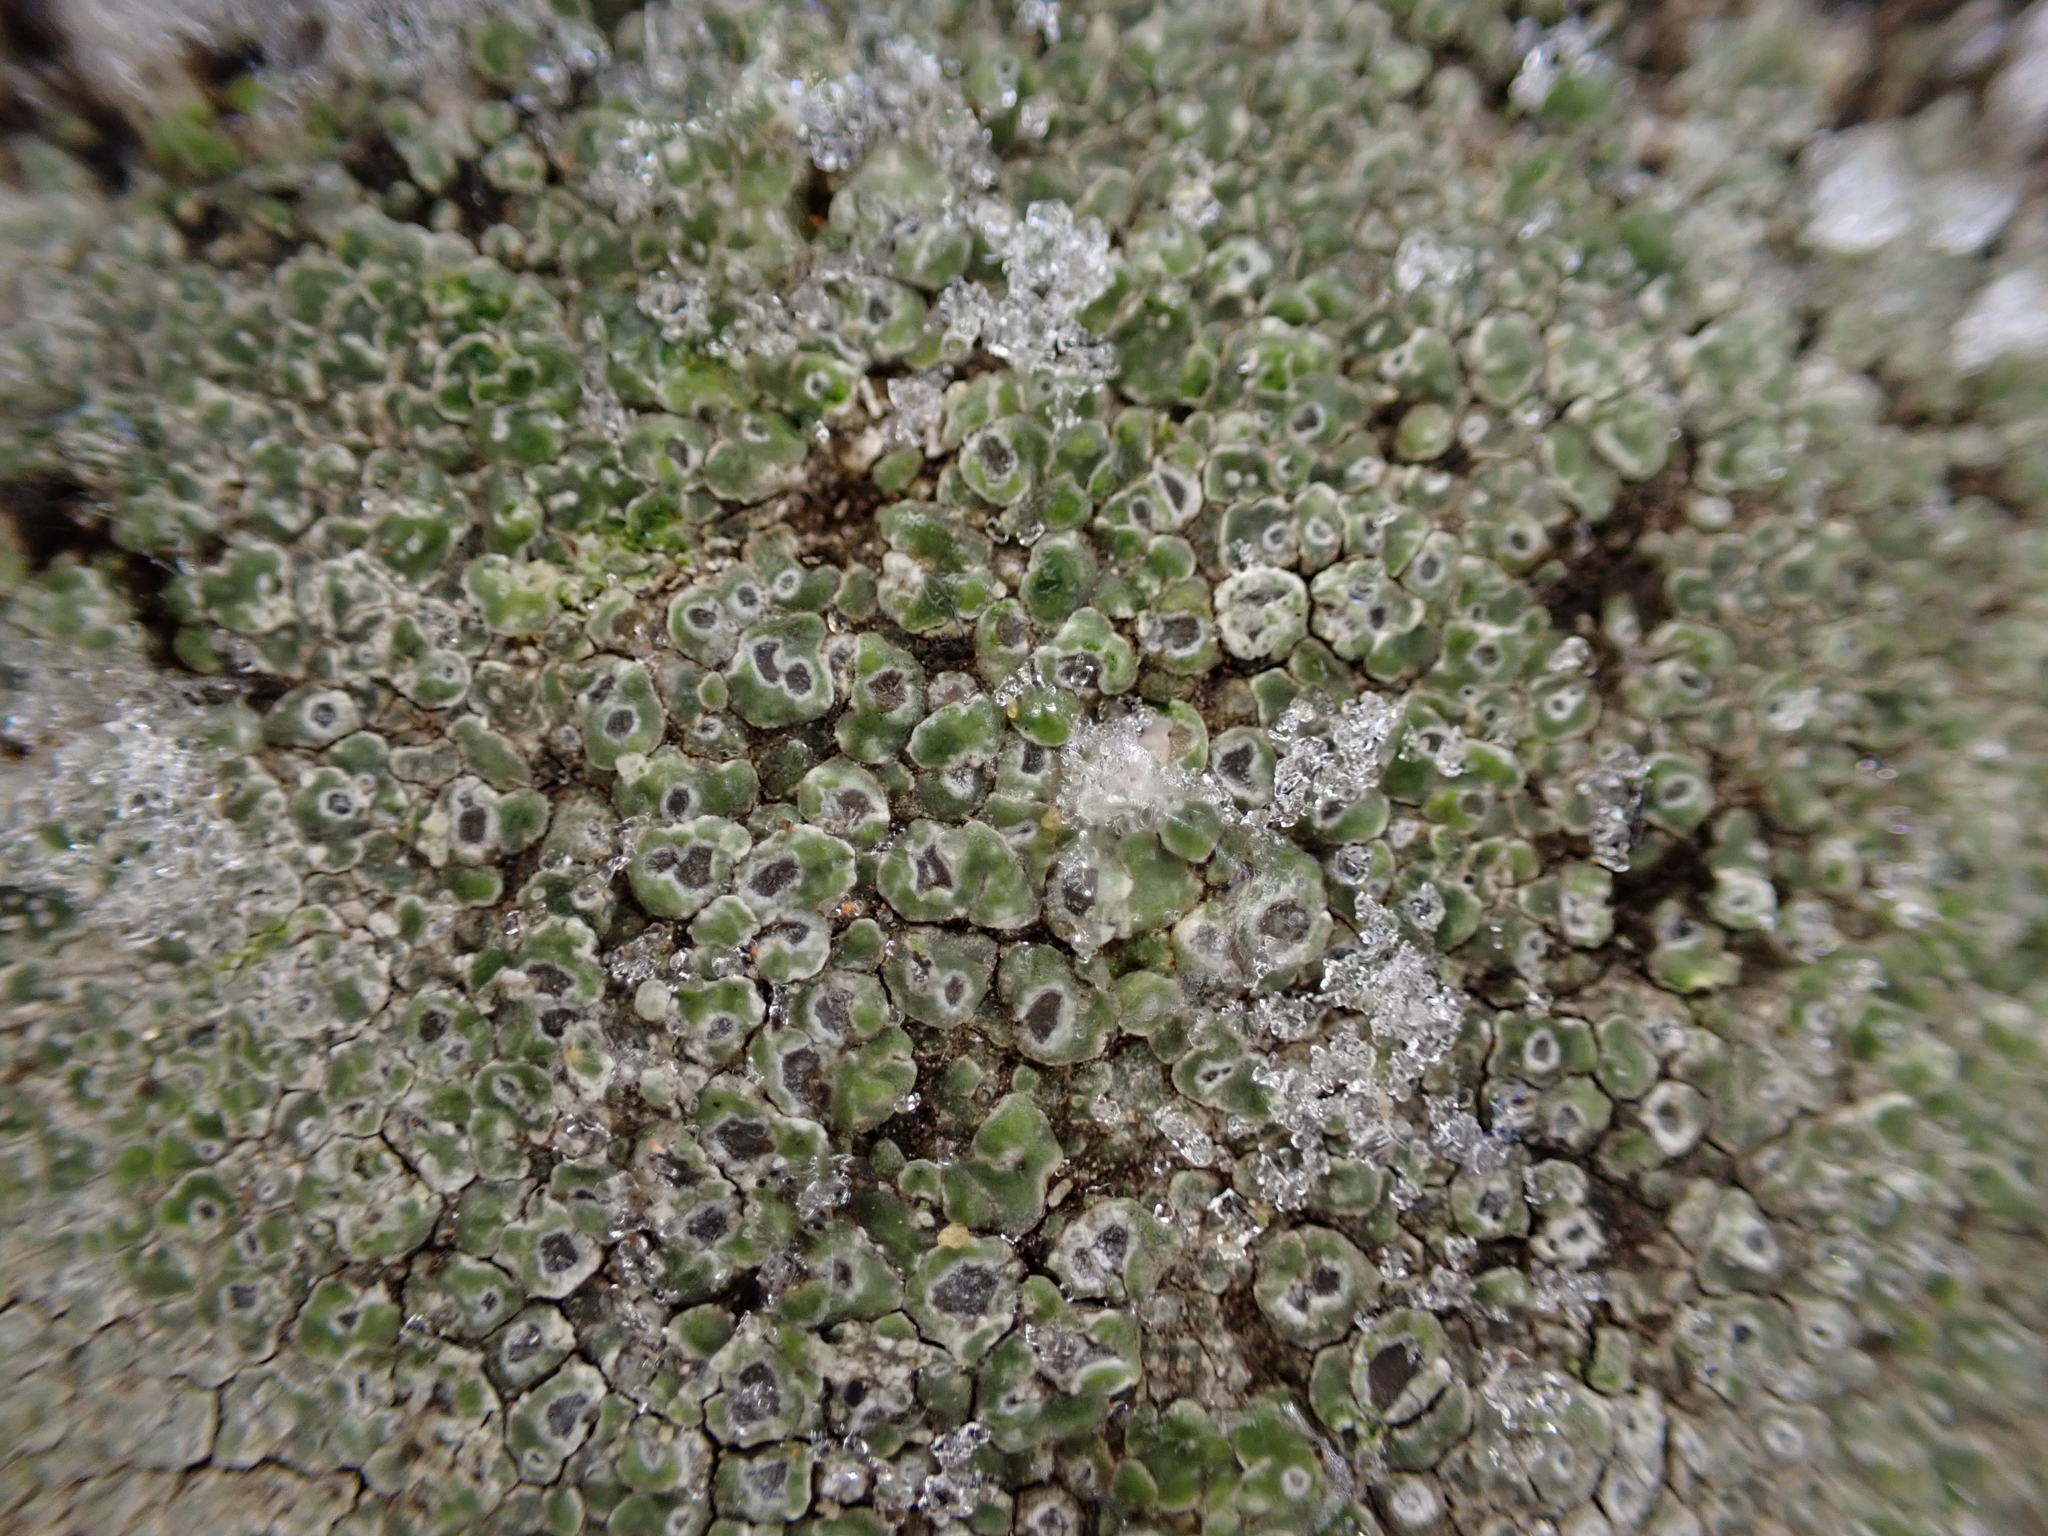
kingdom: Fungi
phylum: Ascomycota
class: Lecanoromycetes
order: Pertusariales
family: Megasporaceae
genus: Circinaria
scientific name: Circinaria contorta
